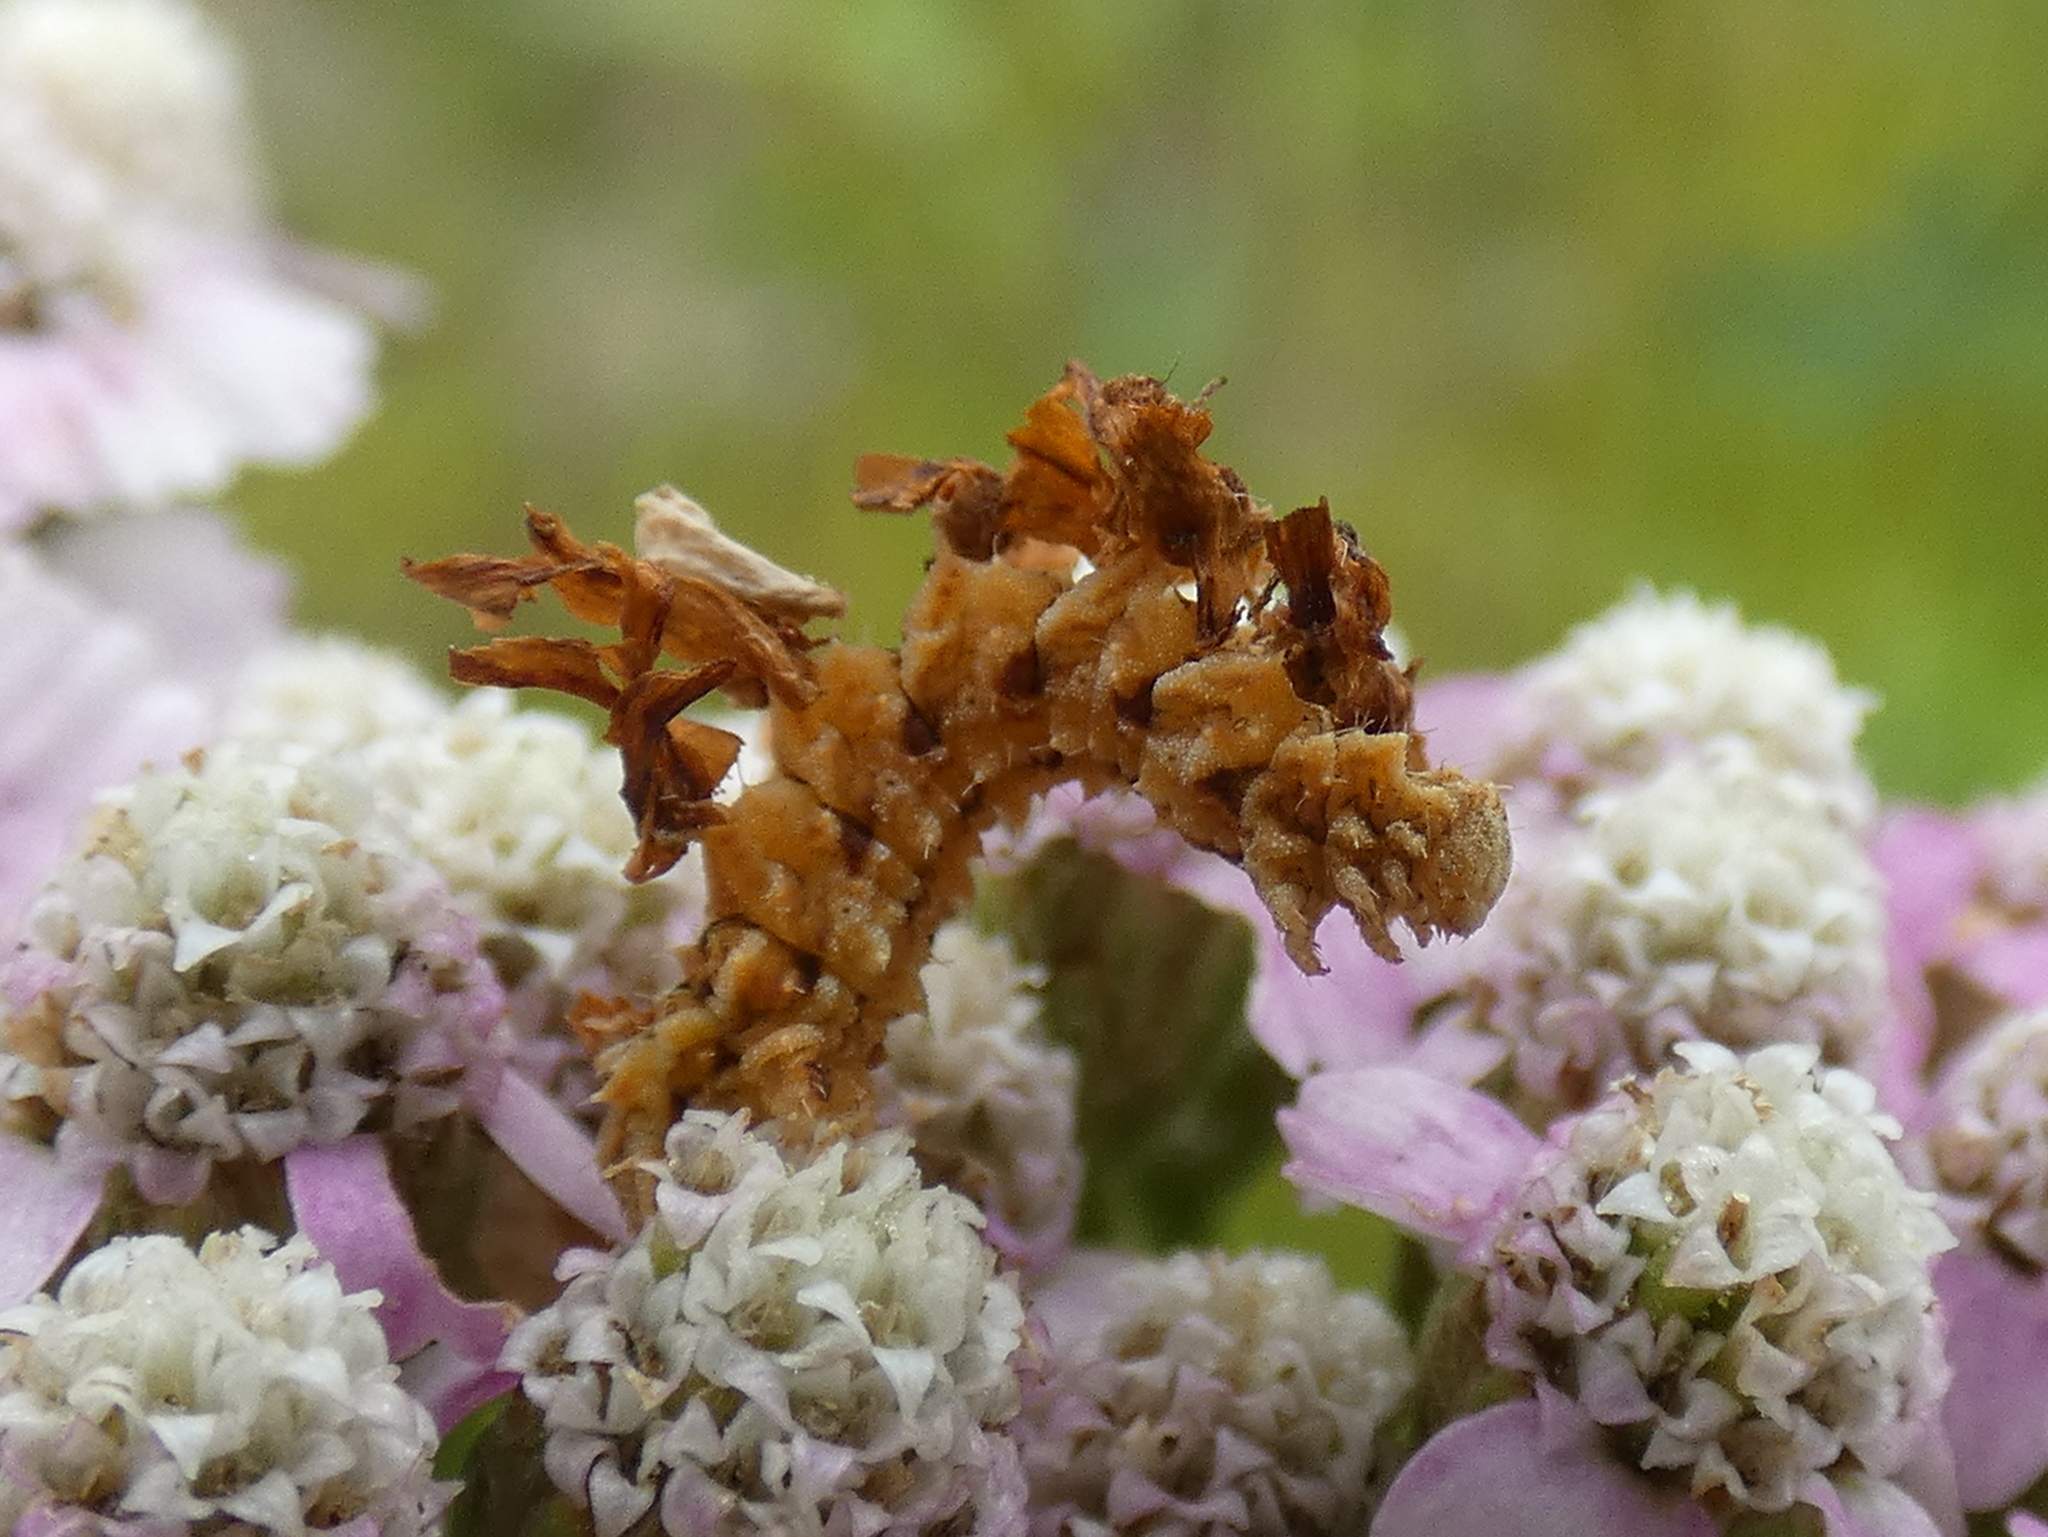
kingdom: Animalia
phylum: Arthropoda
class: Insecta
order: Lepidoptera
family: Geometridae
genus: Synchlora
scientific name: Synchlora aerata
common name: Wavy-lined emerald
